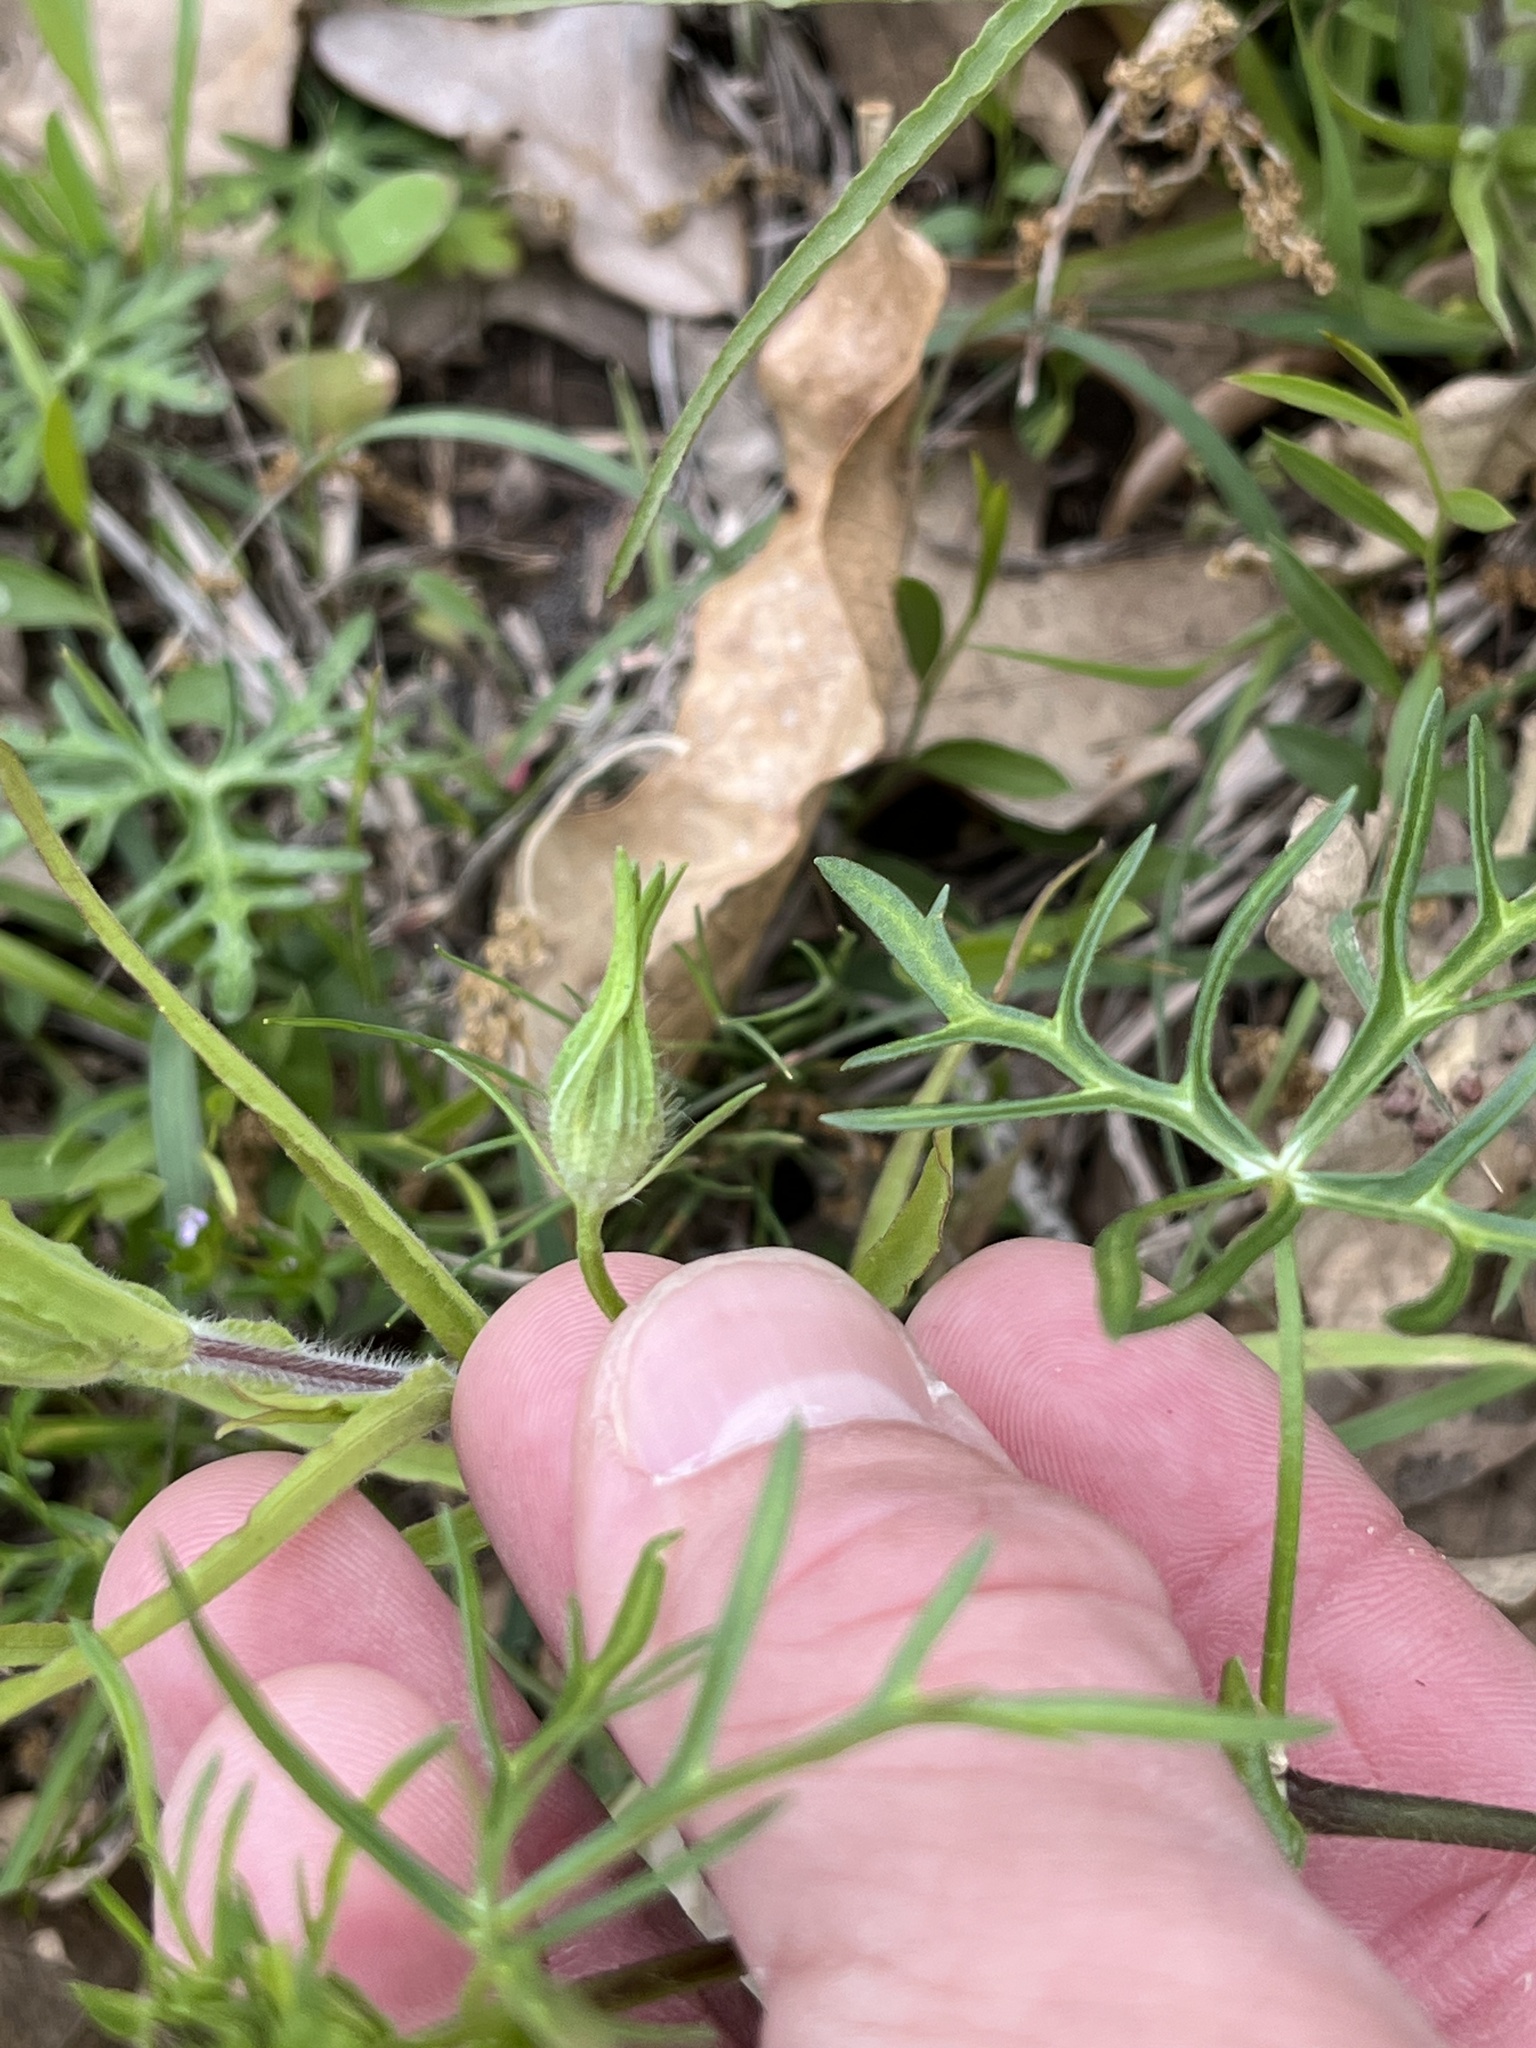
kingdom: Plantae
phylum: Tracheophyta
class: Magnoliopsida
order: Malvales
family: Malvaceae
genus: Callirhoe
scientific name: Callirhoe involucrata
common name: Purple poppy-mallow
